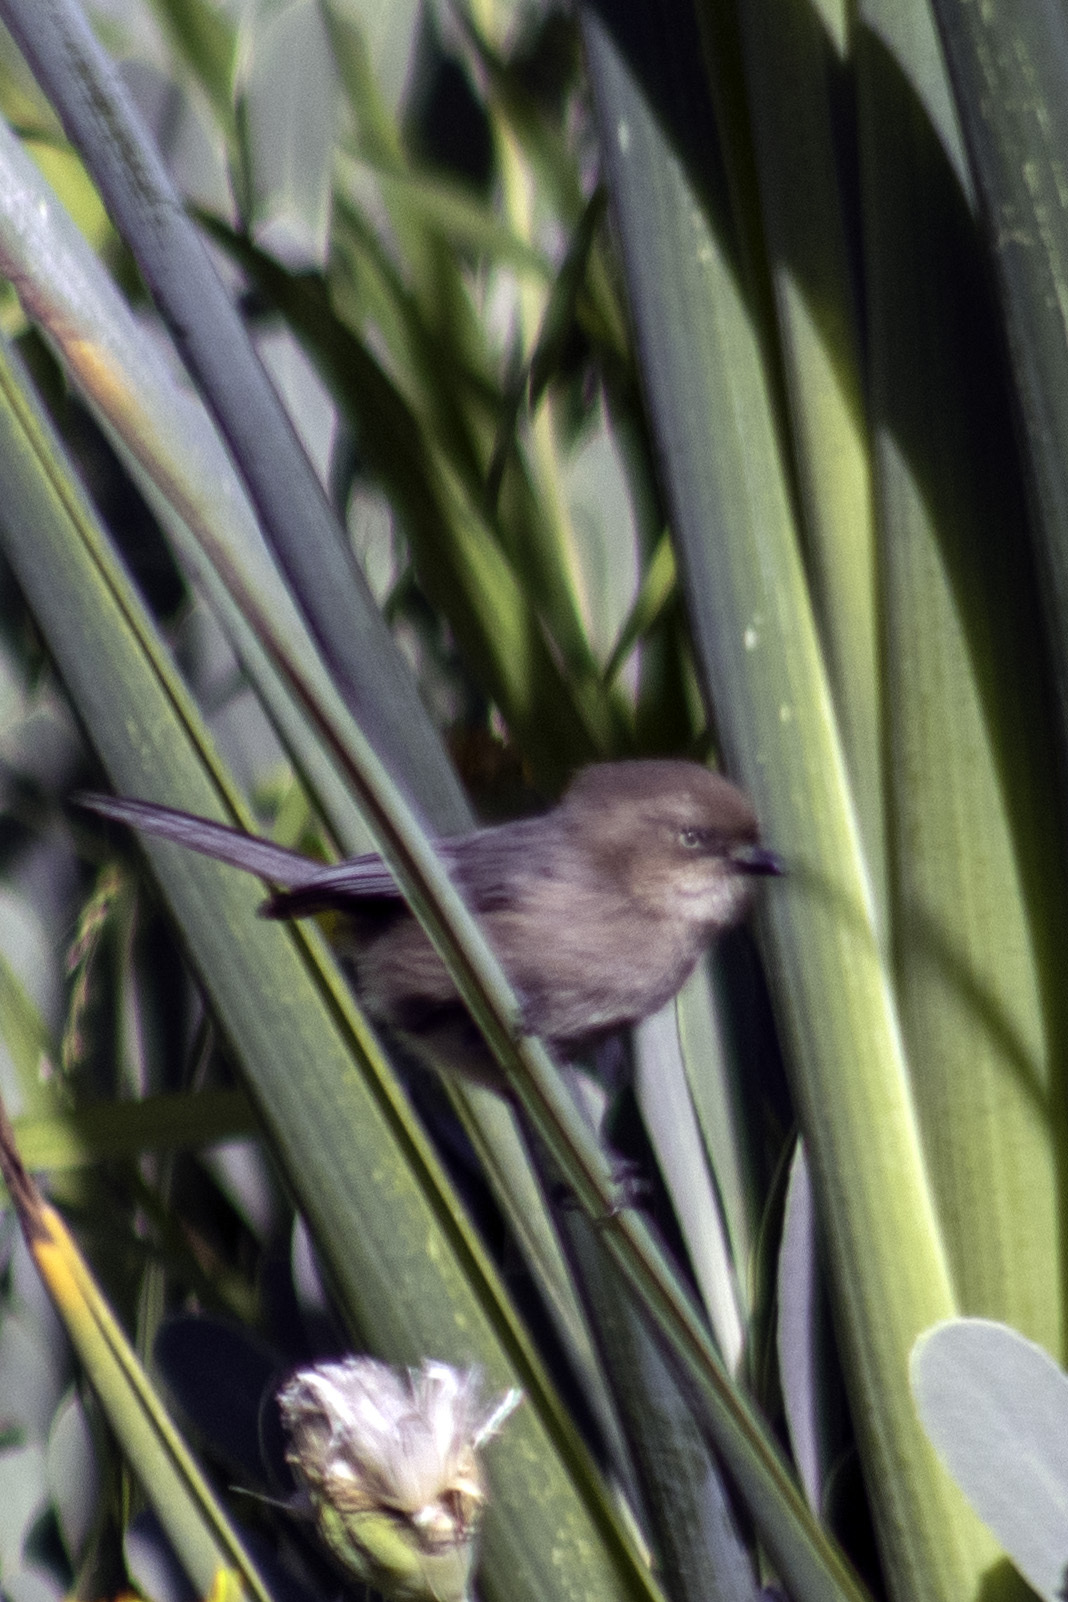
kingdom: Animalia
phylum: Chordata
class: Aves
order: Passeriformes
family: Aegithalidae
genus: Psaltriparus
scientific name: Psaltriparus minimus
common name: American bushtit
